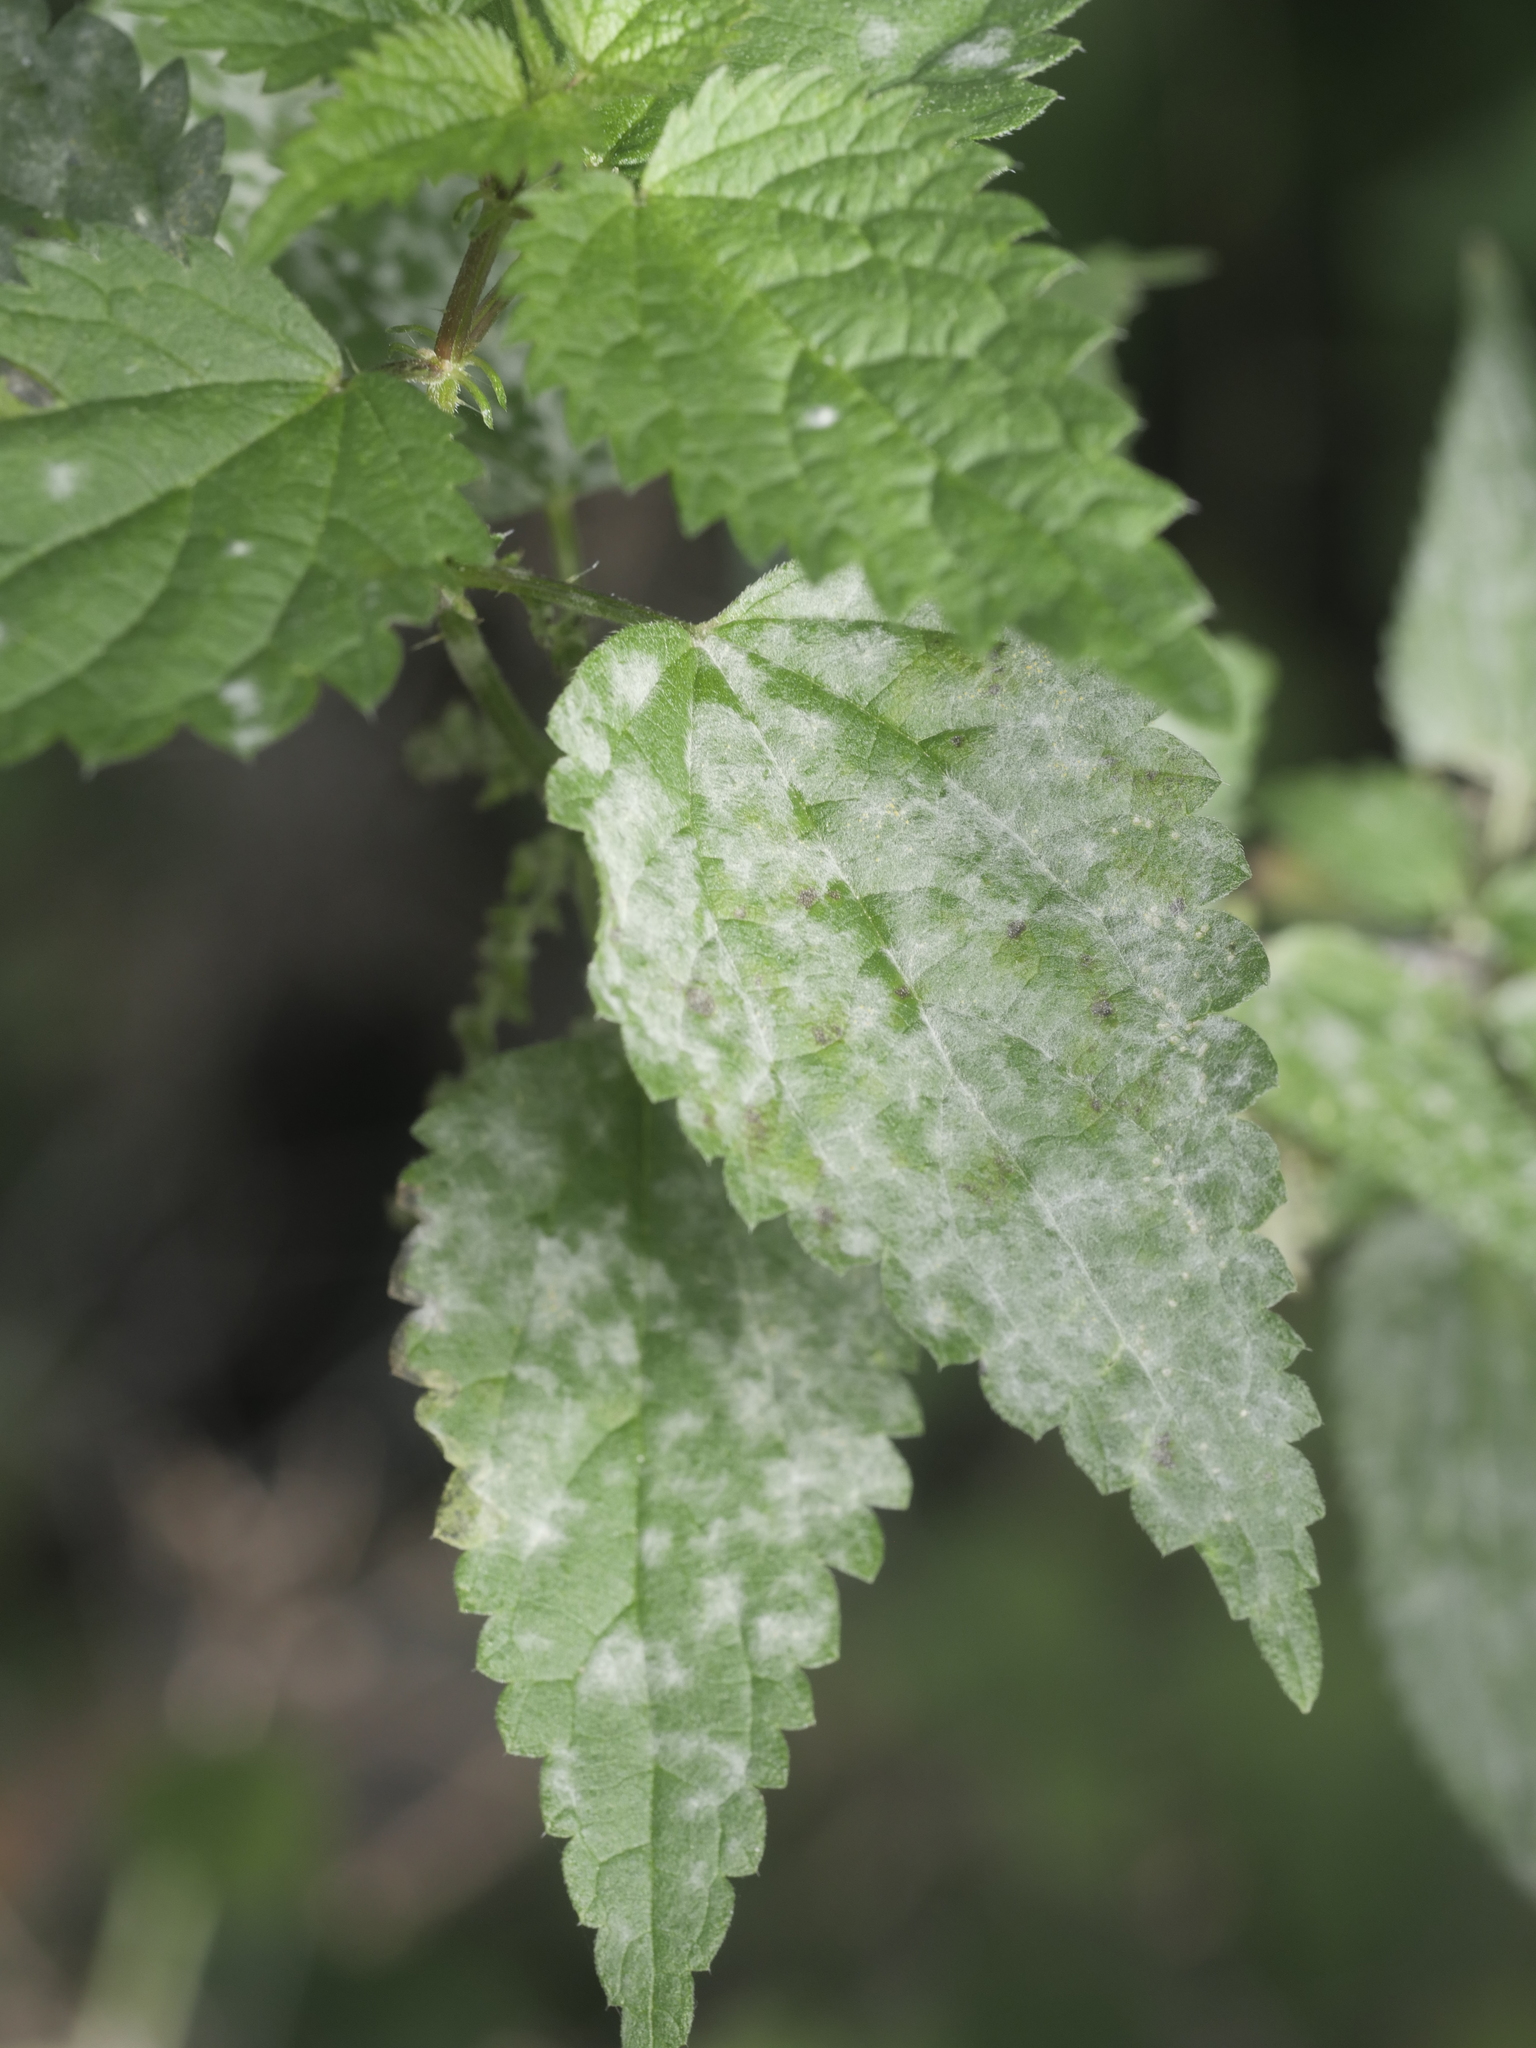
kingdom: Fungi
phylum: Ascomycota
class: Leotiomycetes
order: Helotiales
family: Erysiphaceae
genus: Erysiphe
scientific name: Erysiphe urticae
